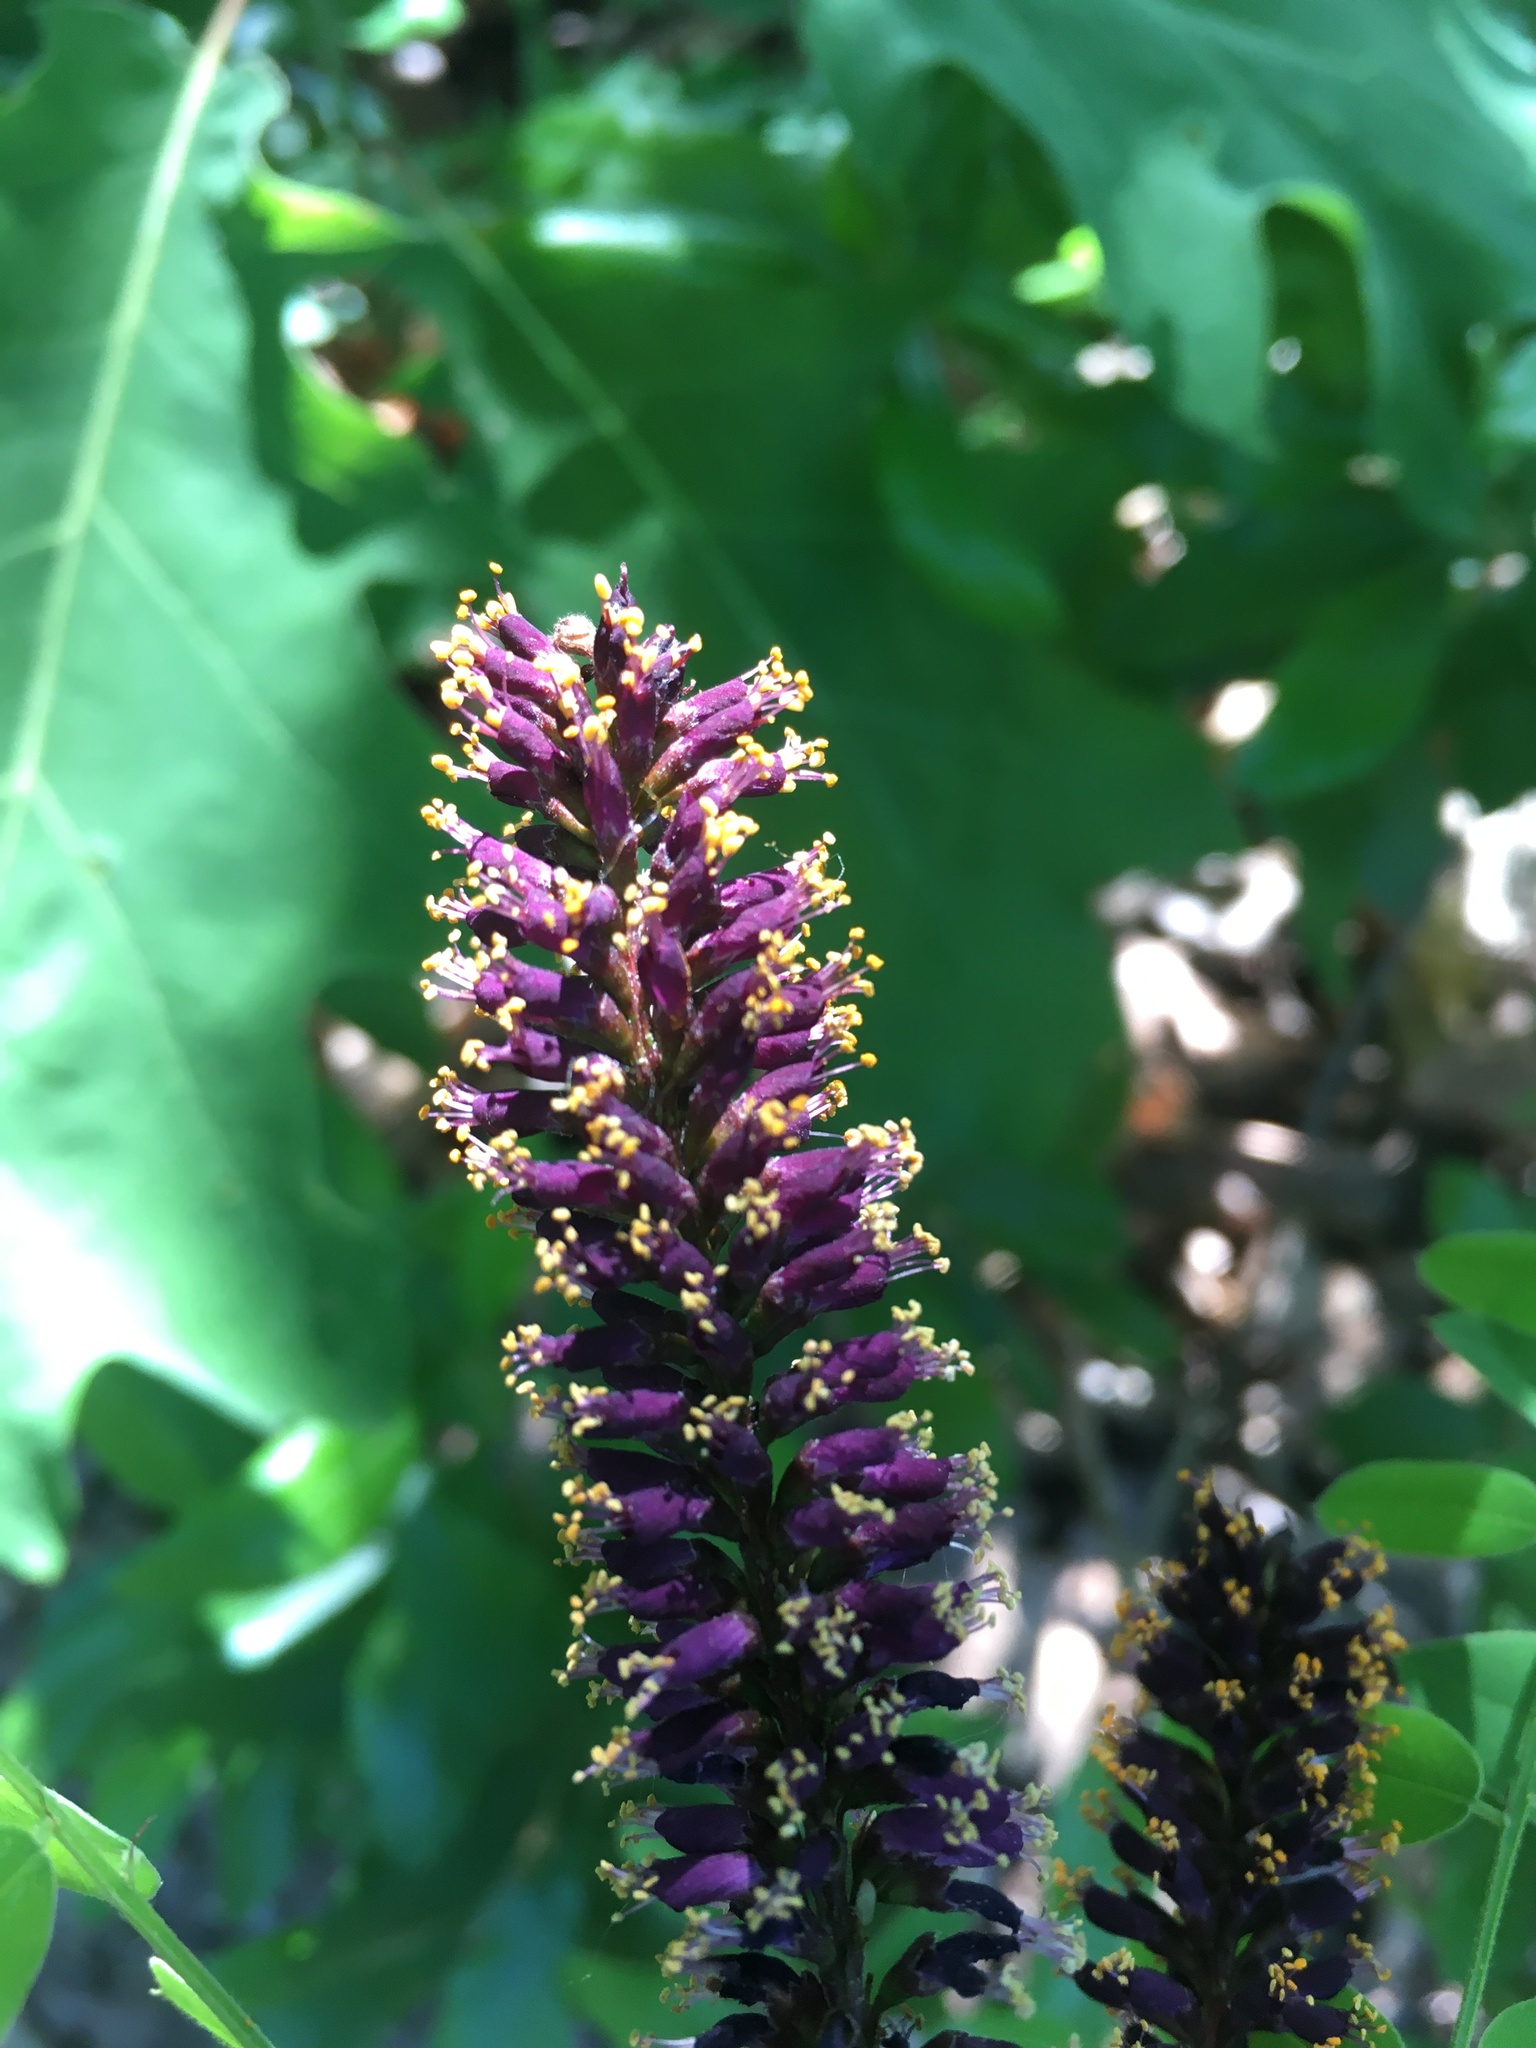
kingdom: Plantae
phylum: Tracheophyta
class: Magnoliopsida
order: Fabales
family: Fabaceae
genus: Amorpha
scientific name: Amorpha fruticosa
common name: False indigo
